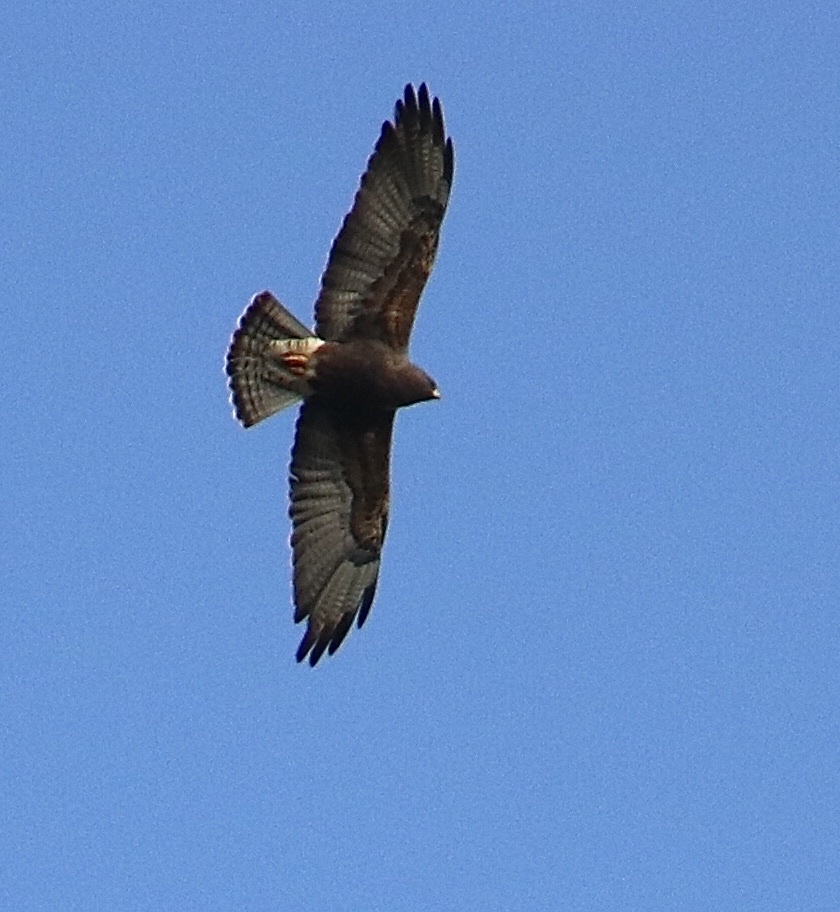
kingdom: Animalia
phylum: Chordata
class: Aves
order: Accipitriformes
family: Accipitridae
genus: Buteo
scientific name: Buteo swainsoni
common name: Swainson's hawk
